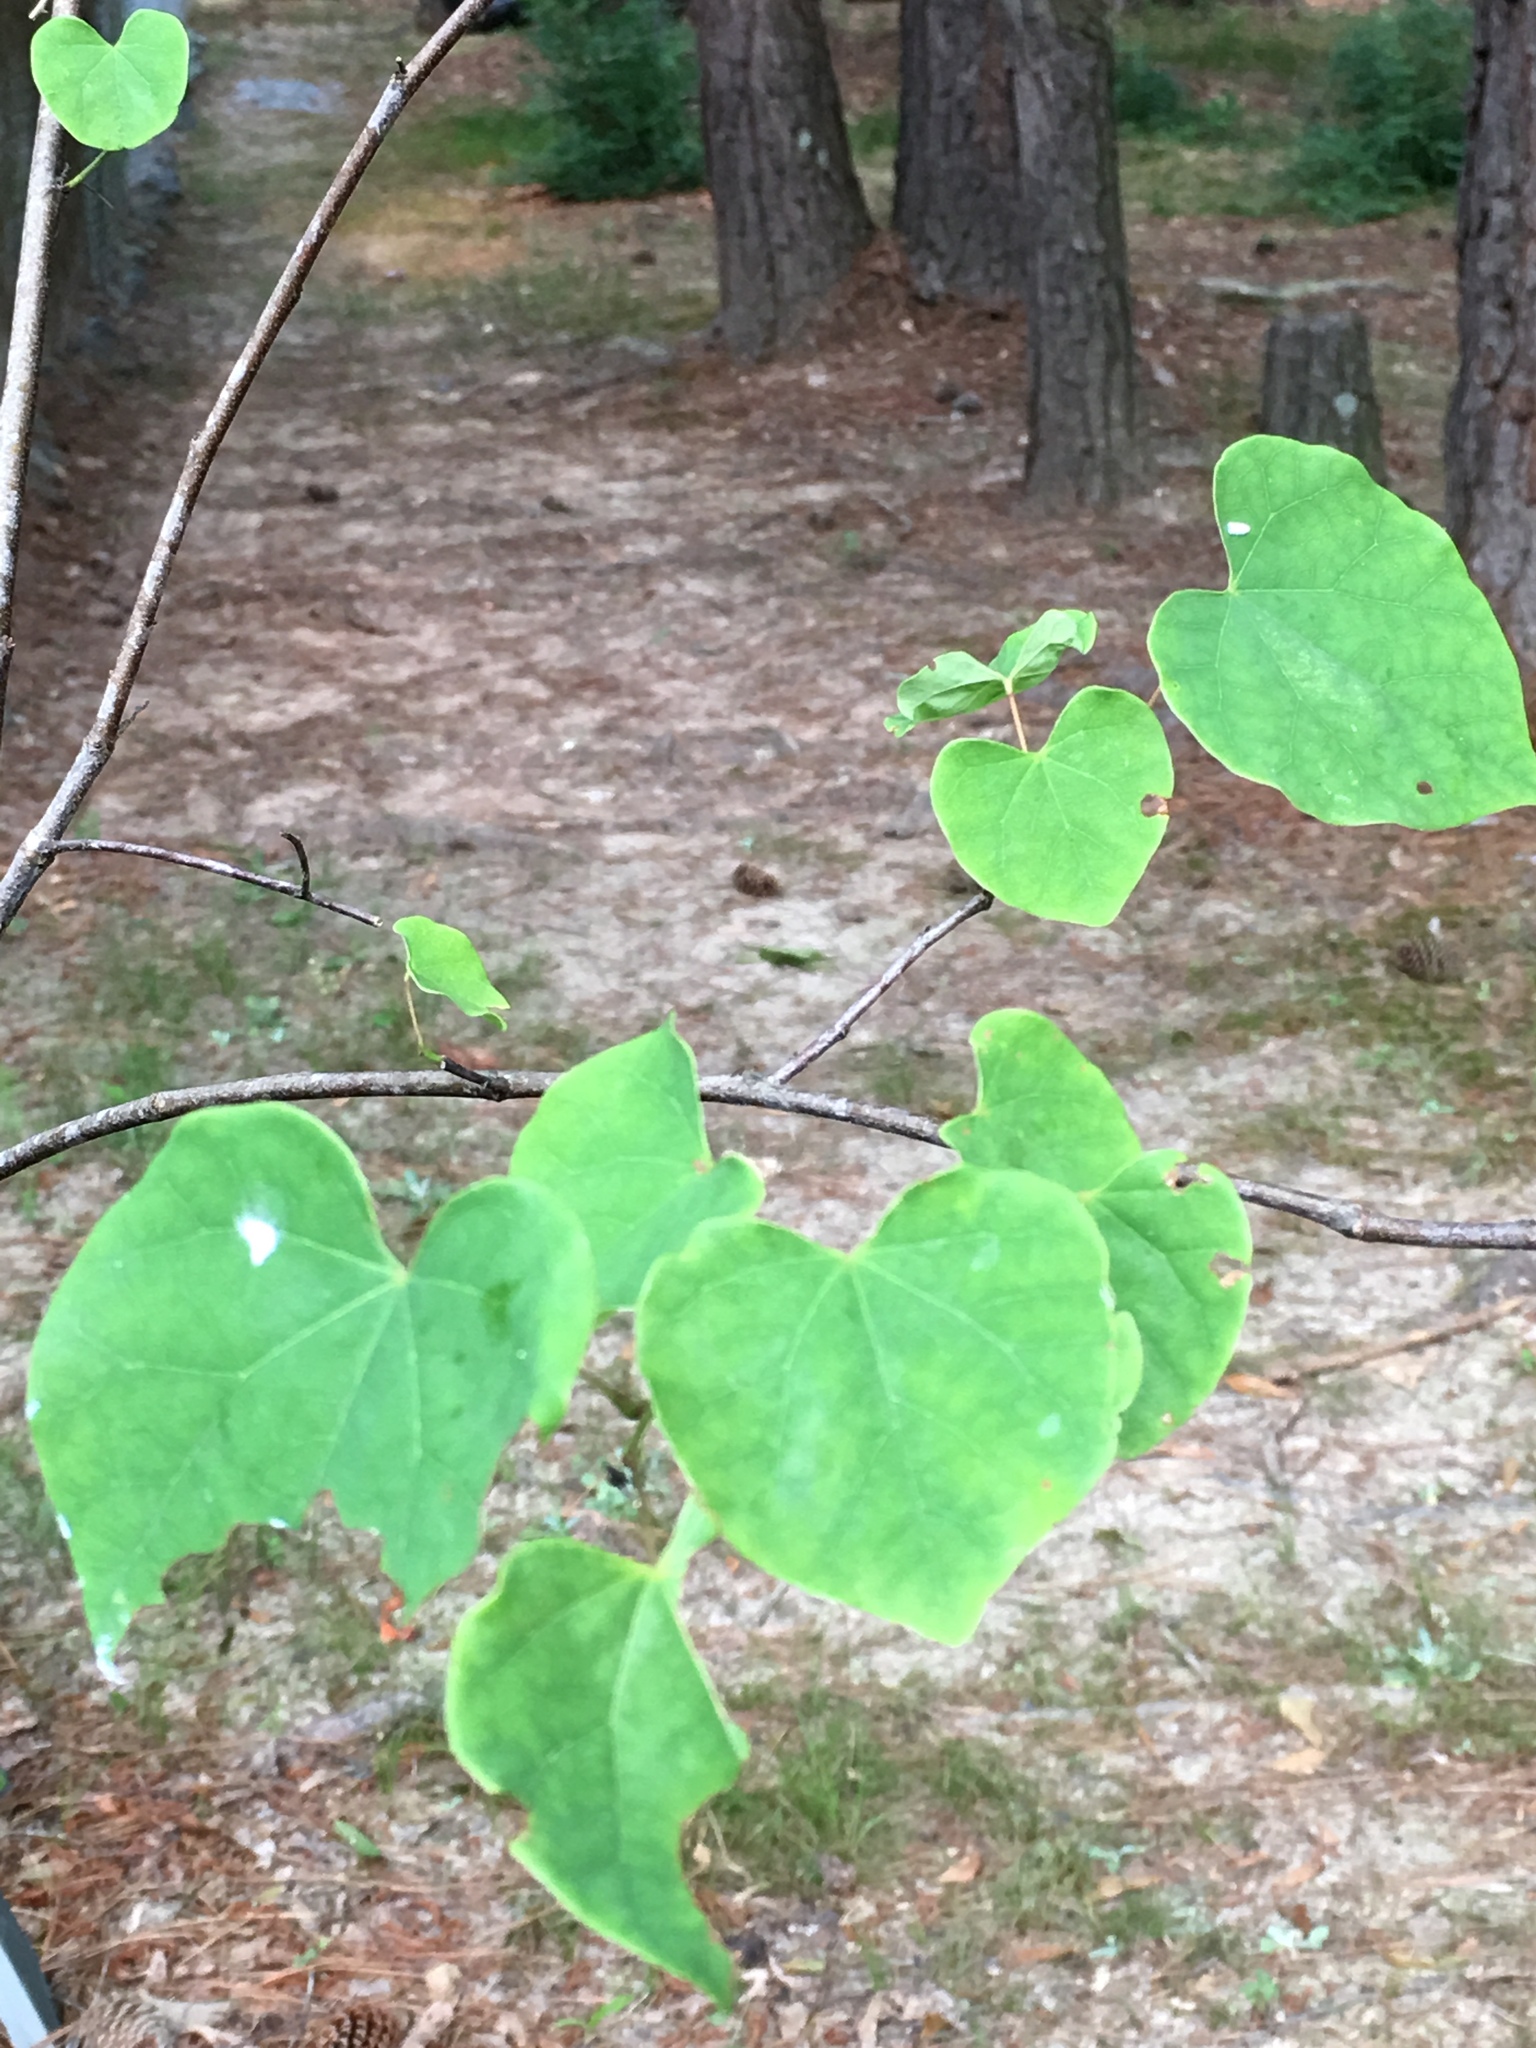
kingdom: Plantae
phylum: Tracheophyta
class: Magnoliopsida
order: Fabales
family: Fabaceae
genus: Cercis
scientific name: Cercis canadensis
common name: Eastern redbud
